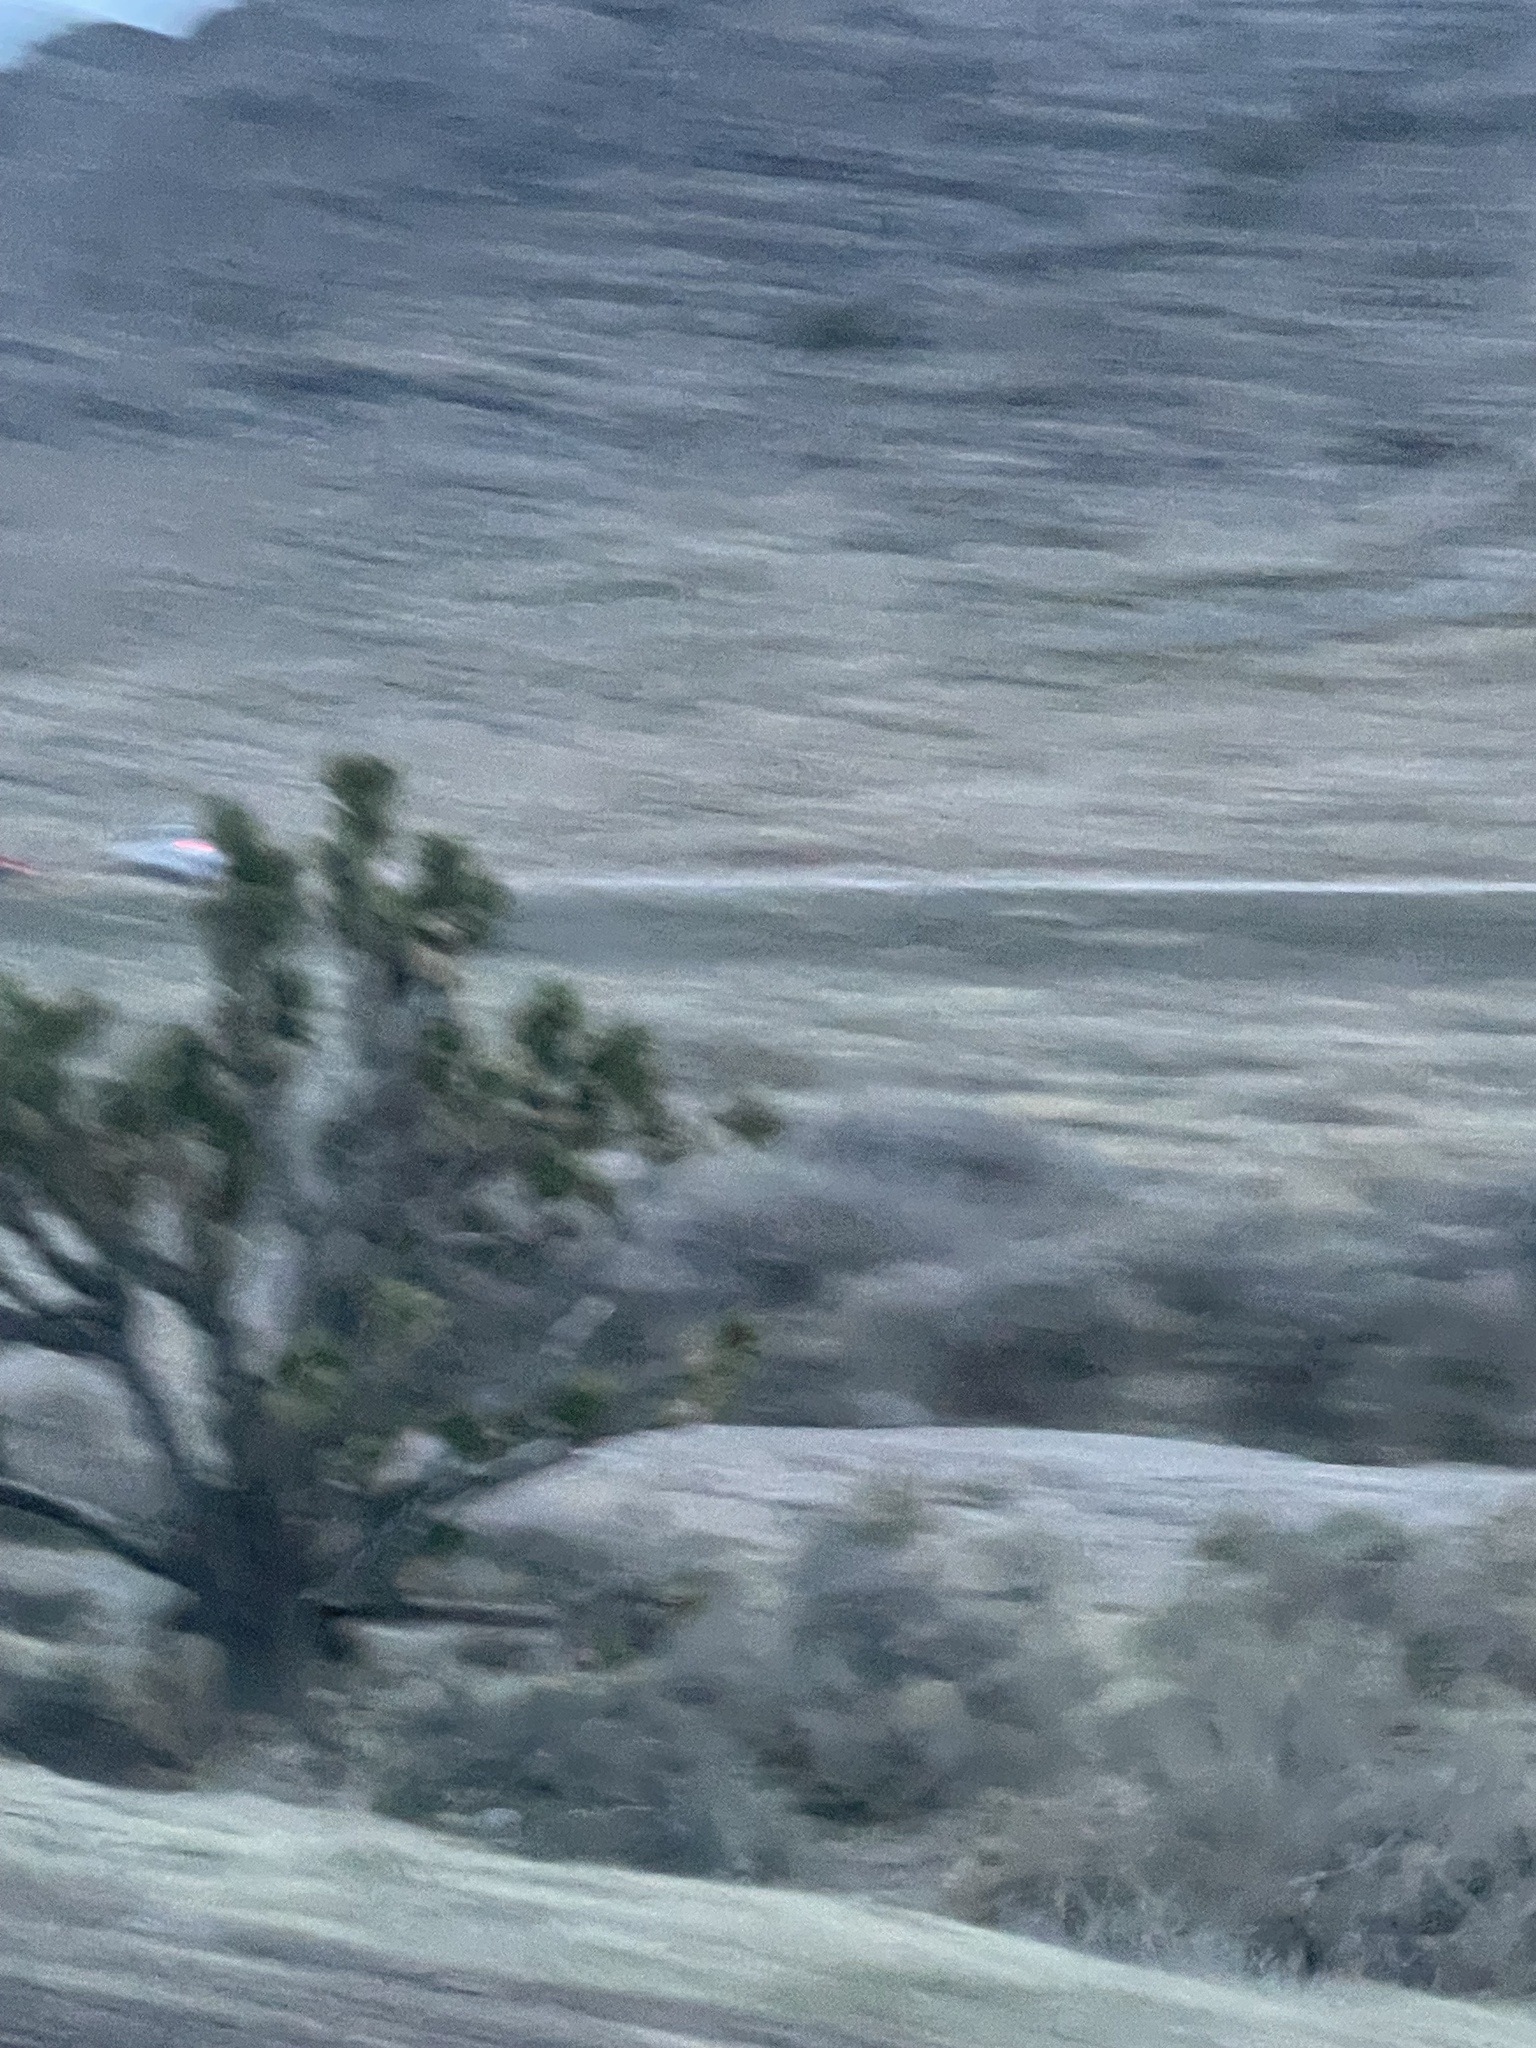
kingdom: Plantae
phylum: Tracheophyta
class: Liliopsida
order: Asparagales
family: Asparagaceae
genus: Yucca
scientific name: Yucca brevifolia
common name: Joshua tree
